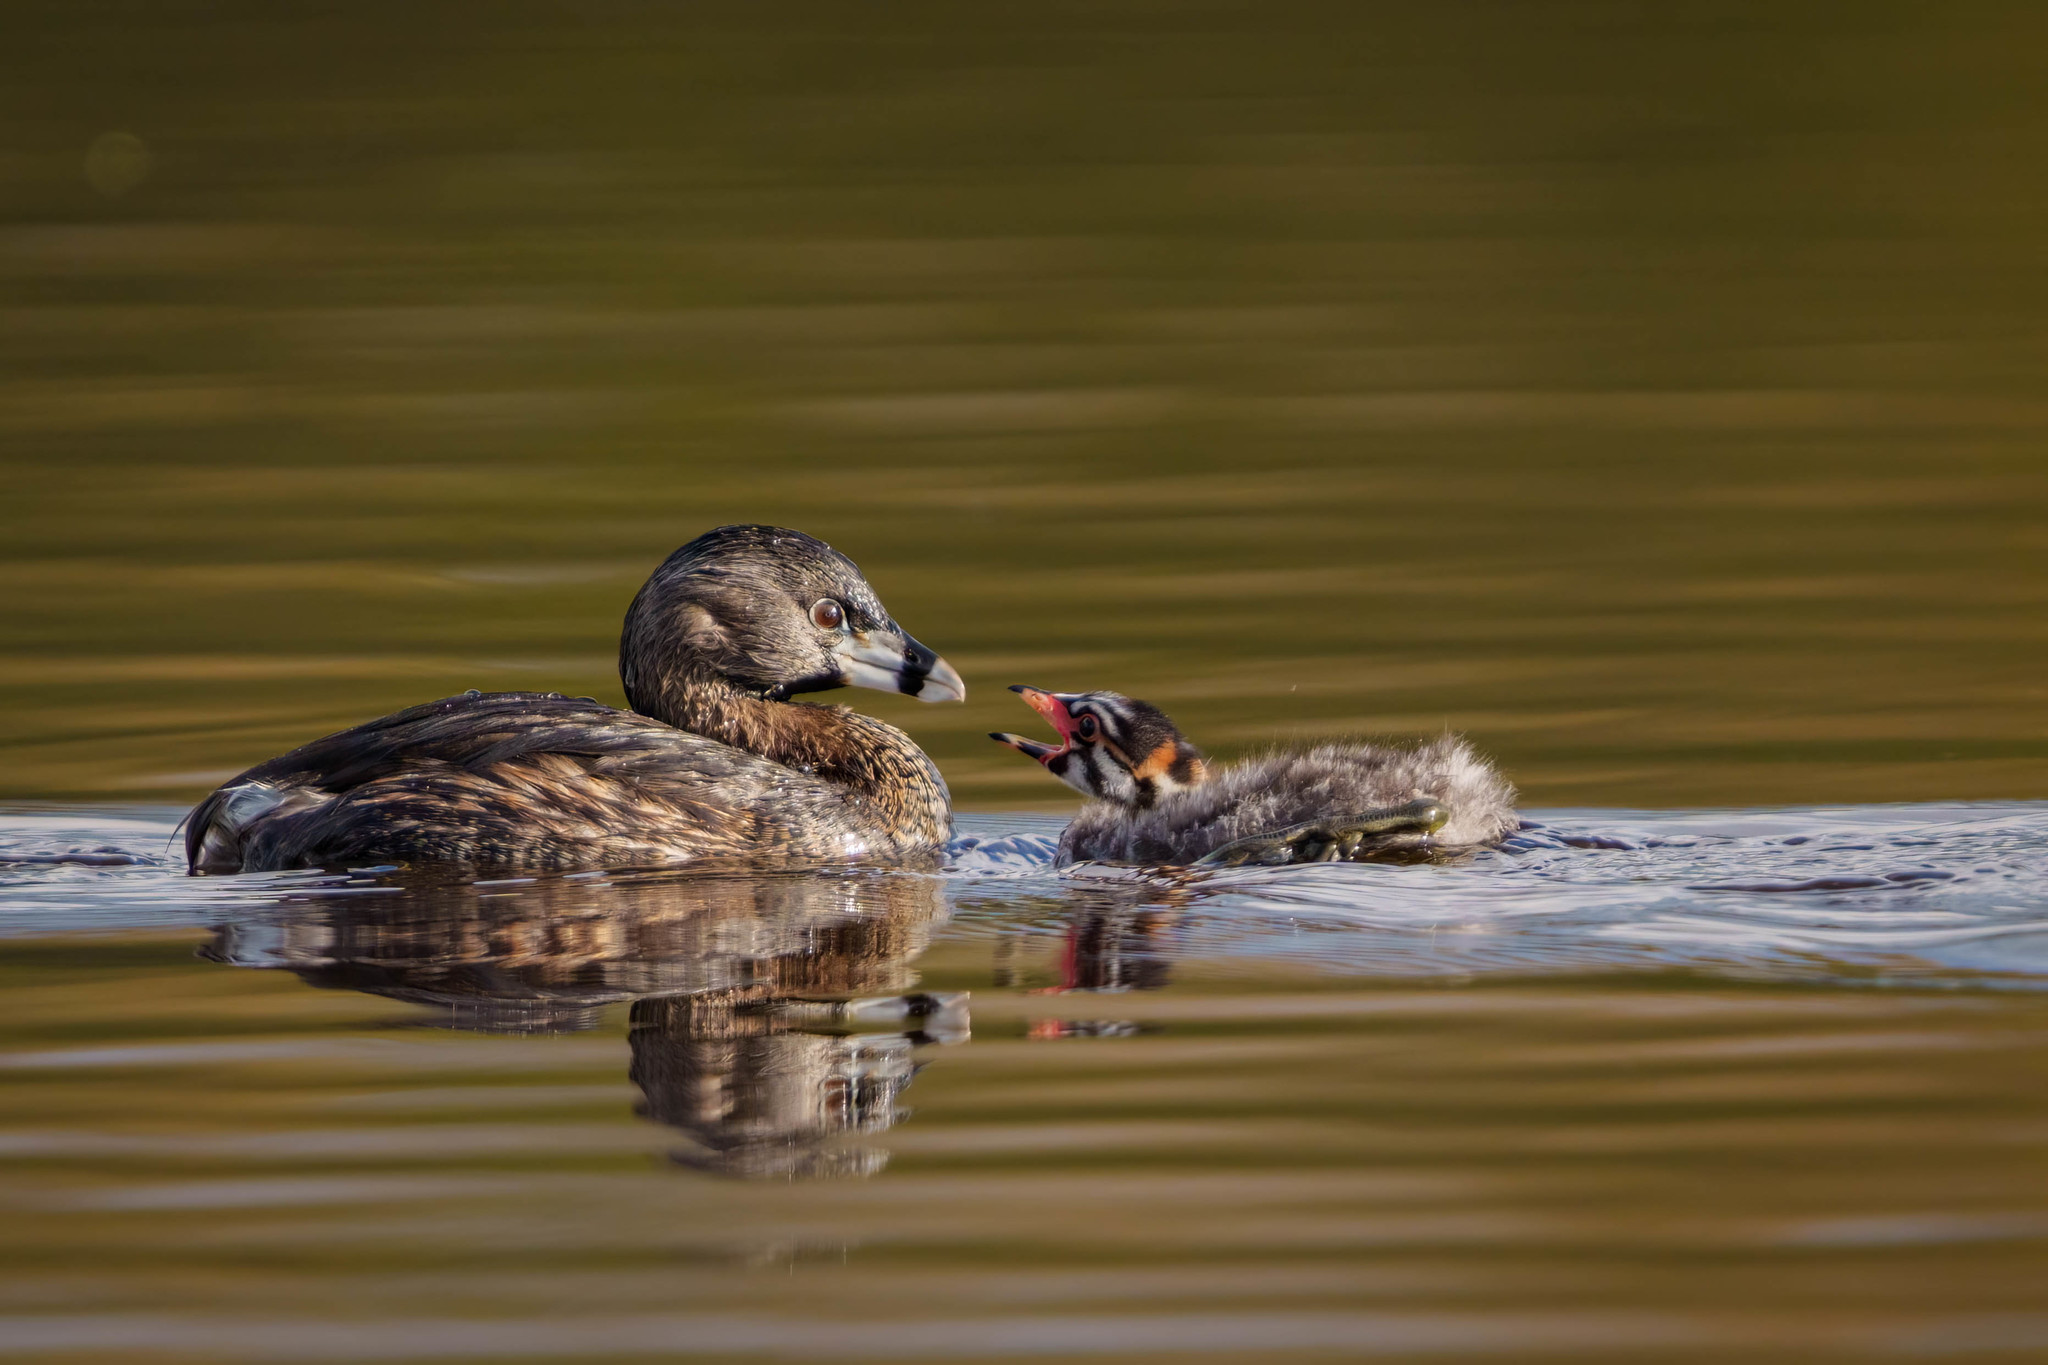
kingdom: Animalia
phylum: Chordata
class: Aves
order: Podicipediformes
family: Podicipedidae
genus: Podilymbus
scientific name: Podilymbus podiceps
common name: Pied-billed grebe
